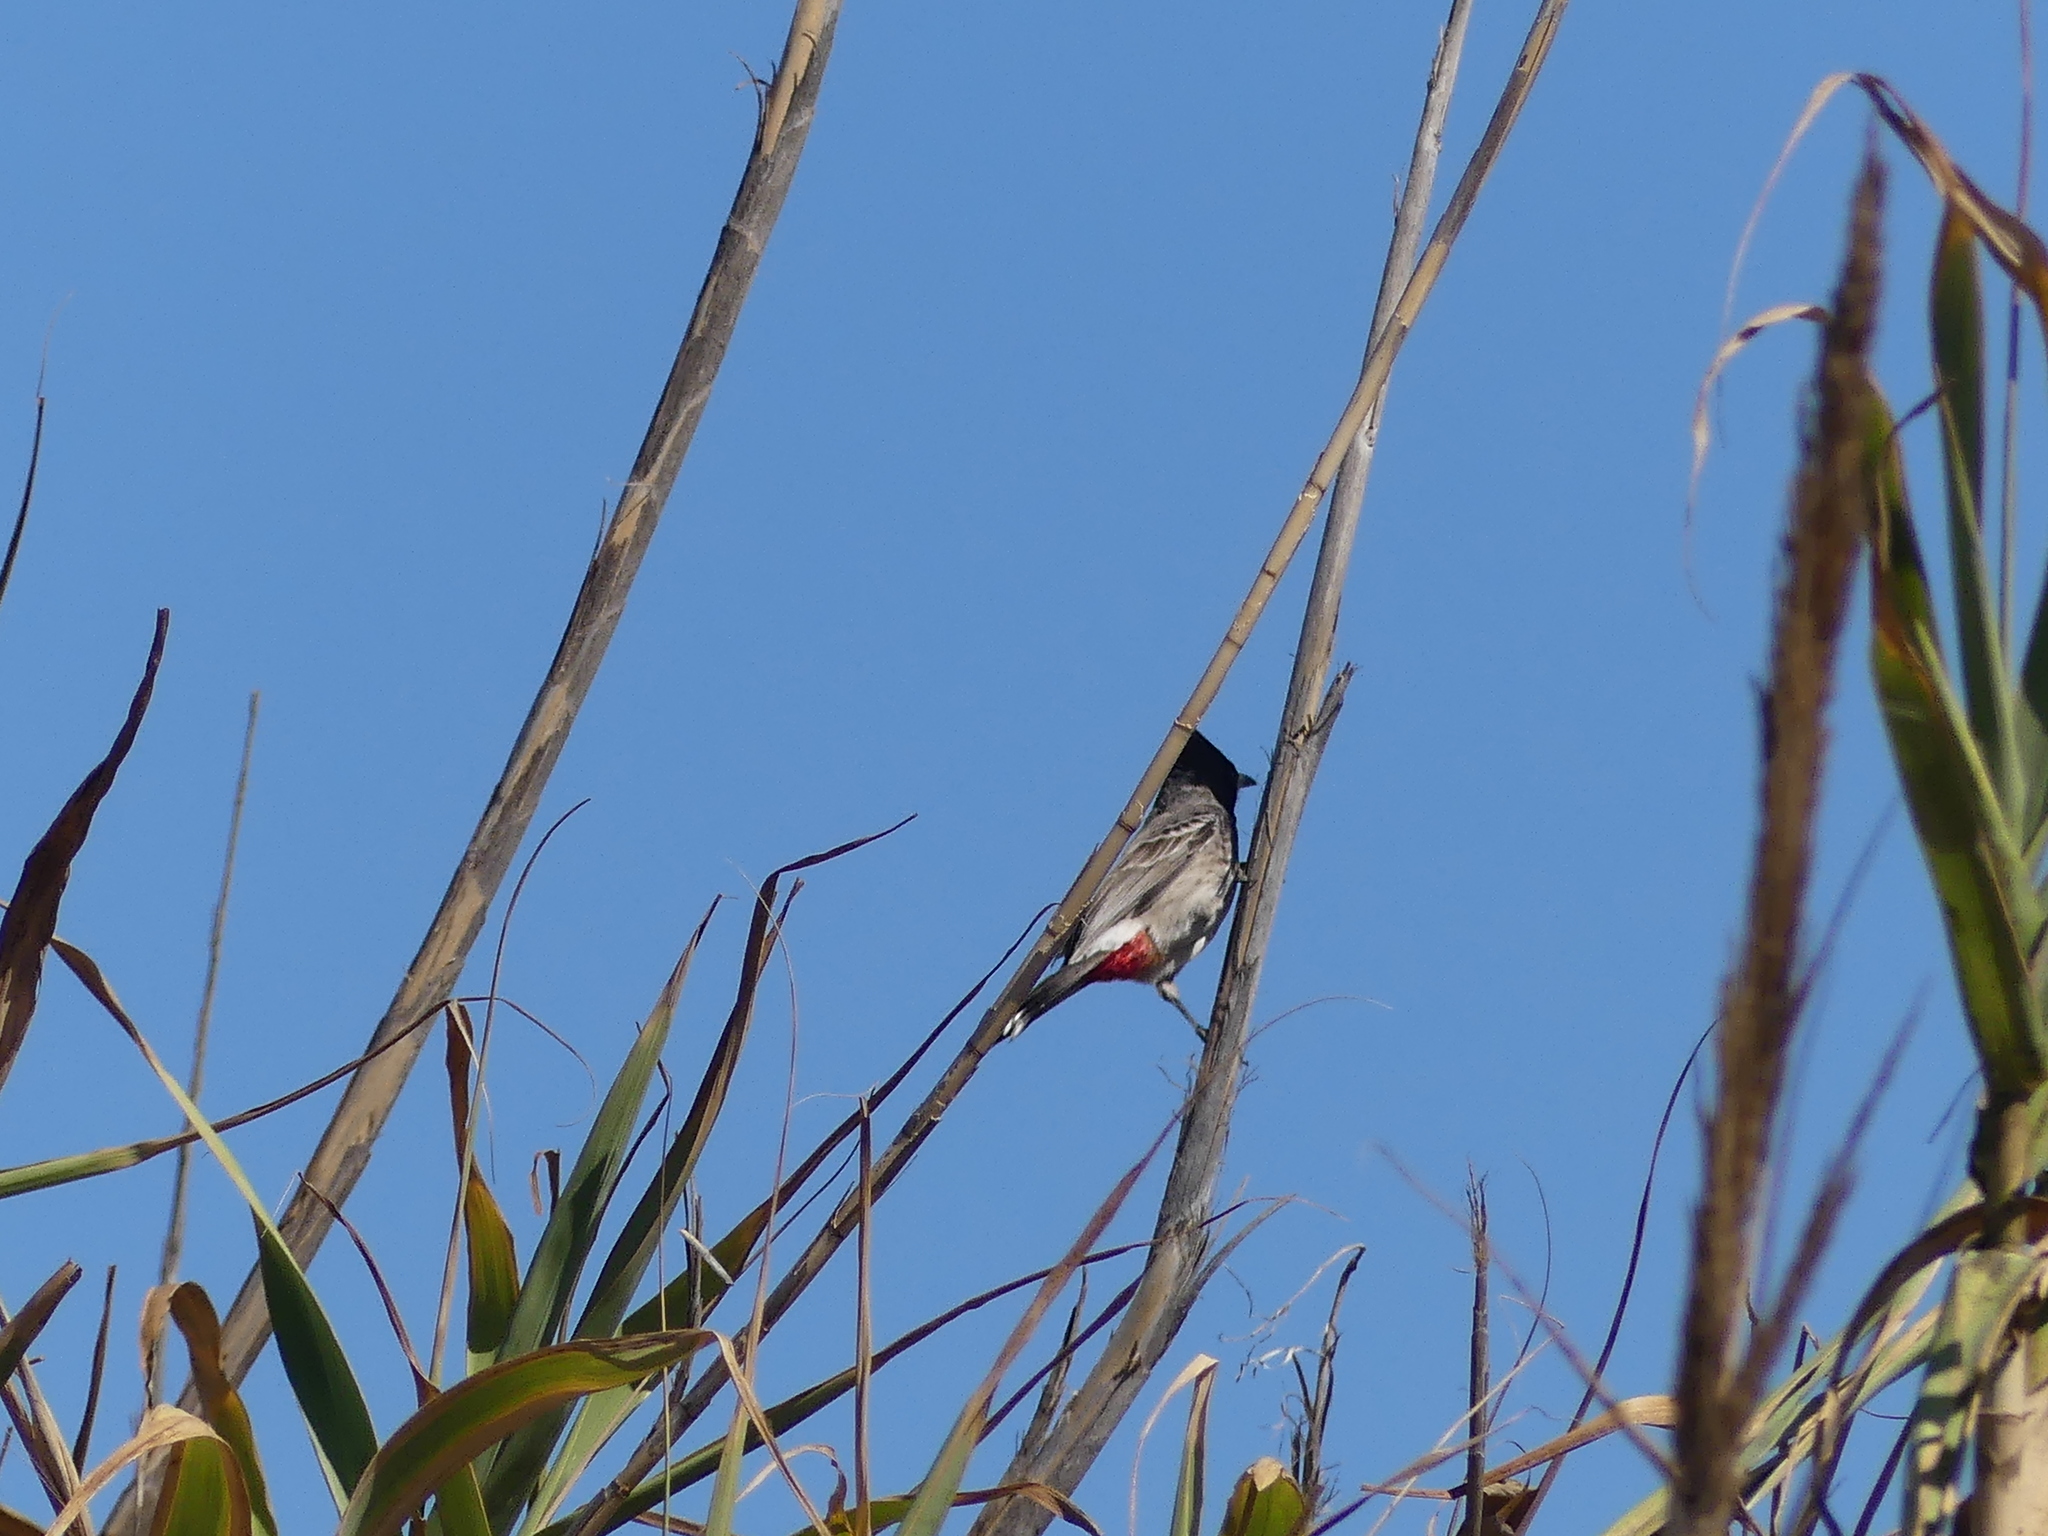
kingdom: Animalia
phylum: Chordata
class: Aves
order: Passeriformes
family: Pycnonotidae
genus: Pycnonotus
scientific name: Pycnonotus cafer
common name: Red-vented bulbul
